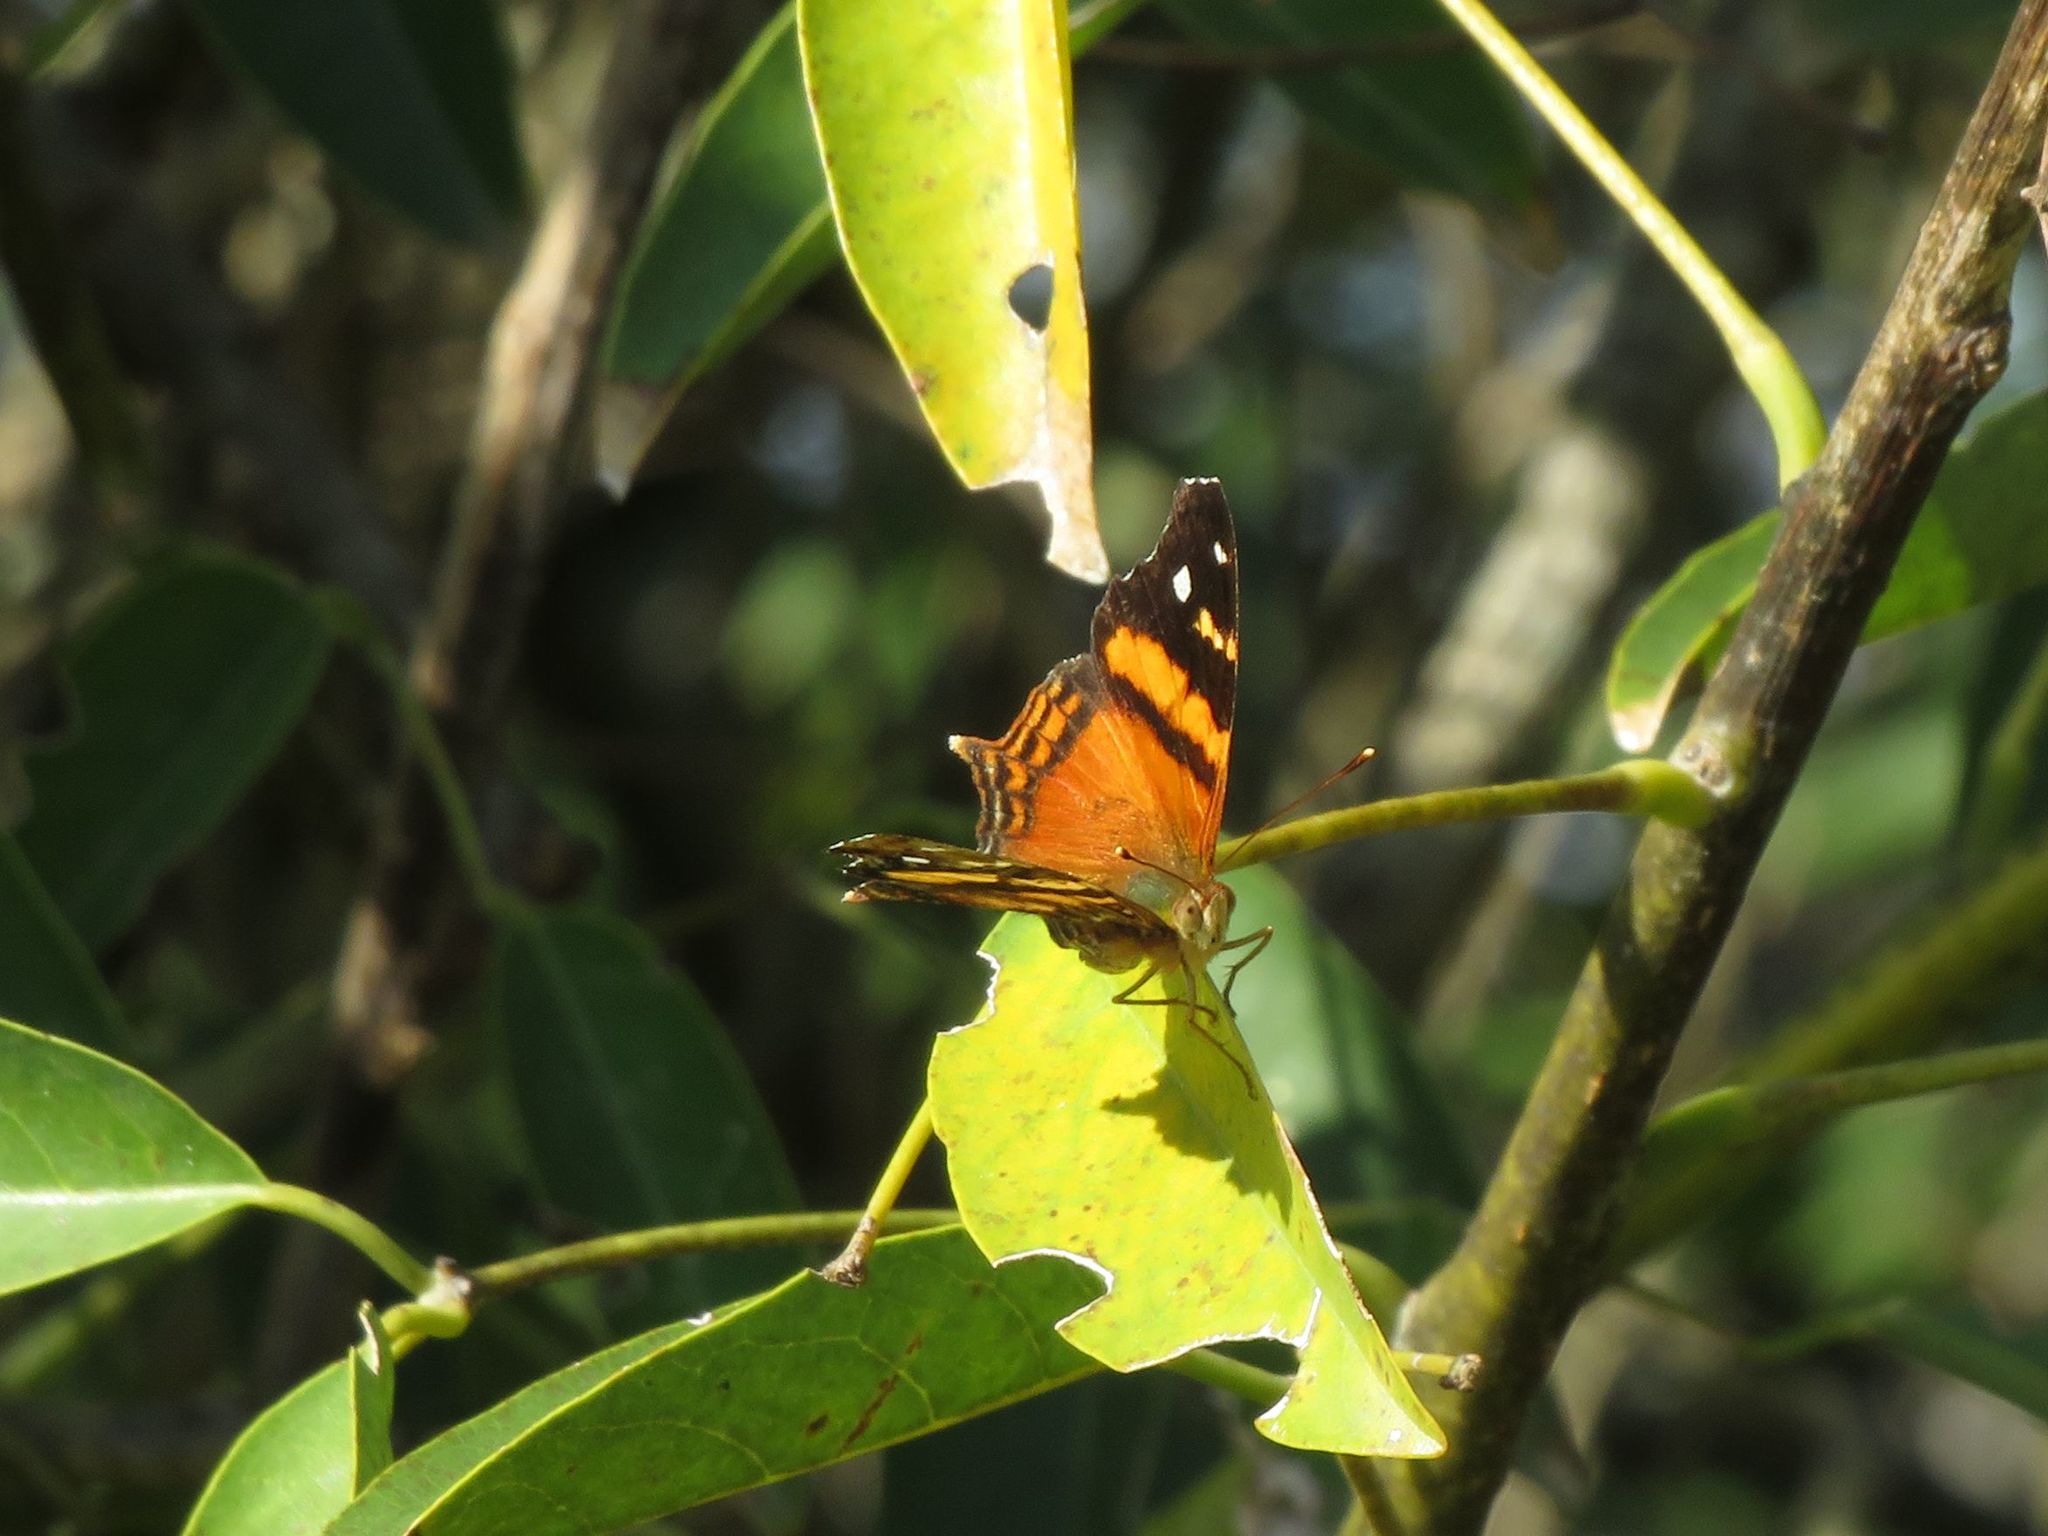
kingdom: Animalia
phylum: Arthropoda
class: Insecta
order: Lepidoptera
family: Nymphalidae
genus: Hypanartia
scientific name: Hypanartia bella
